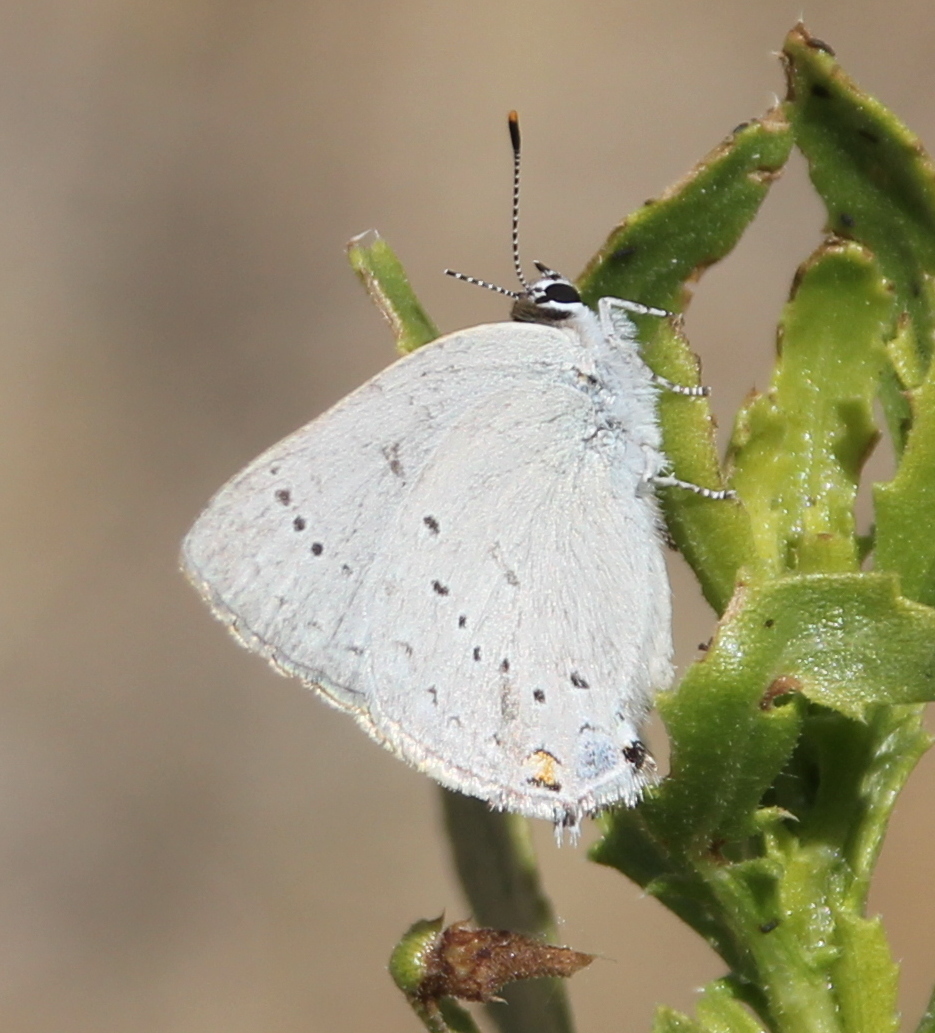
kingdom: Animalia
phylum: Arthropoda
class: Insecta
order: Lepidoptera
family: Lycaenidae
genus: Strymon
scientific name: Strymon sylvinus
